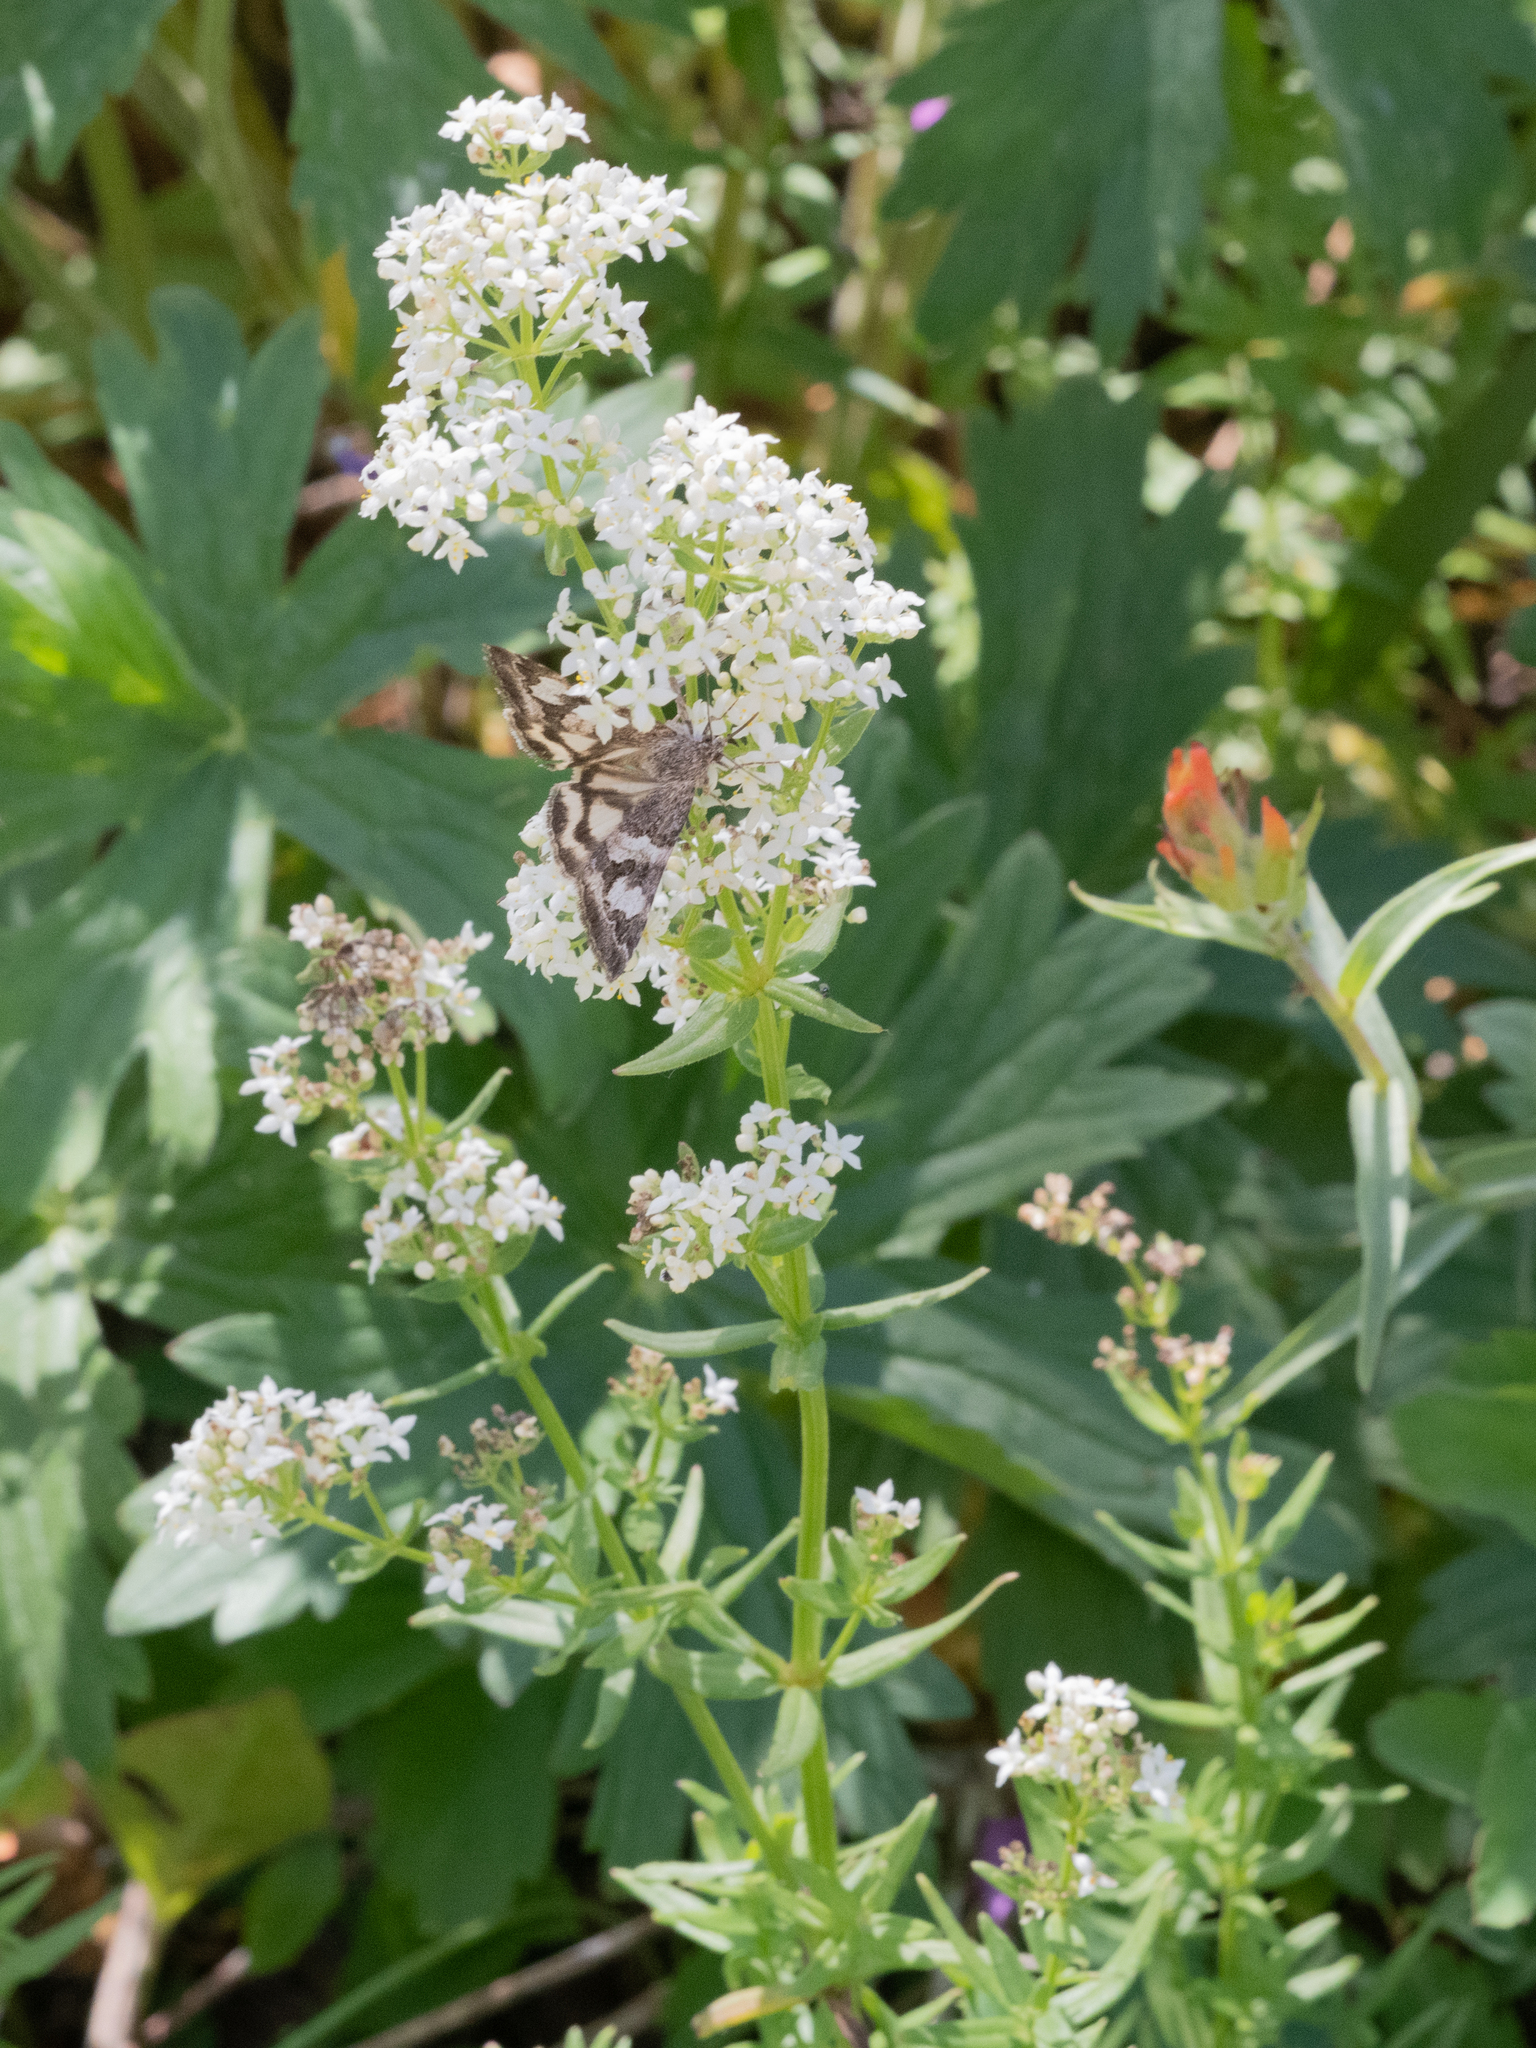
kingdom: Plantae
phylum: Tracheophyta
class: Magnoliopsida
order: Gentianales
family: Rubiaceae
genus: Galium
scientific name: Galium boreale
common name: Northern bedstraw
